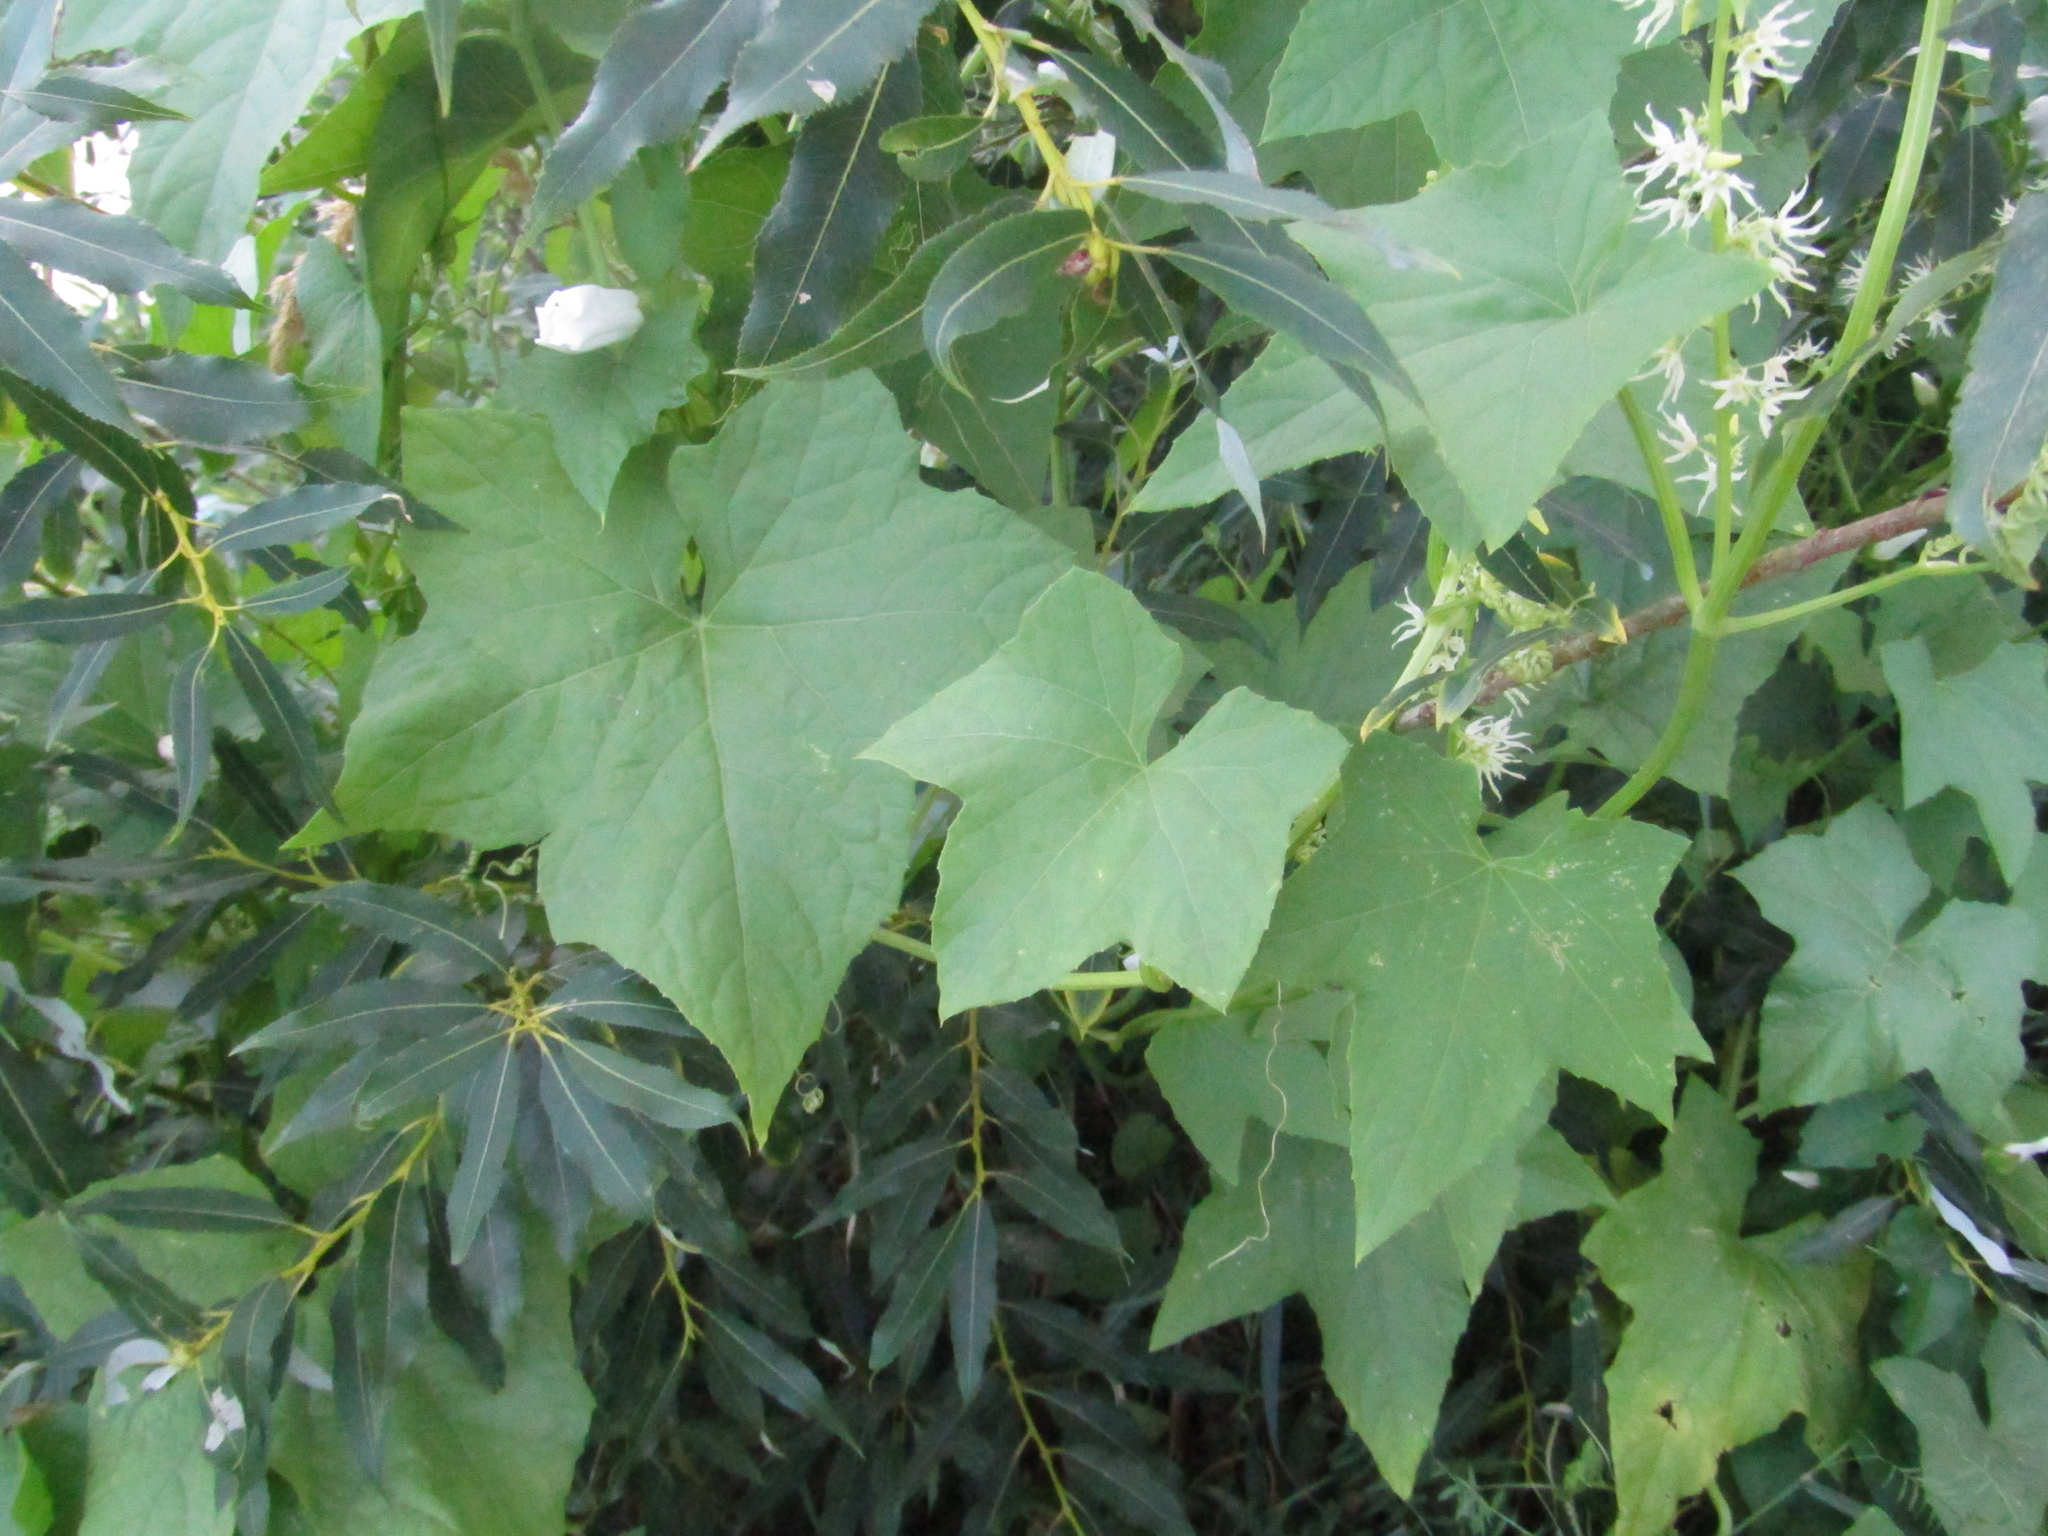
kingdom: Plantae
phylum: Tracheophyta
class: Magnoliopsida
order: Cucurbitales
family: Cucurbitaceae
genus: Echinocystis
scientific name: Echinocystis lobata
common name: Wild cucumber
